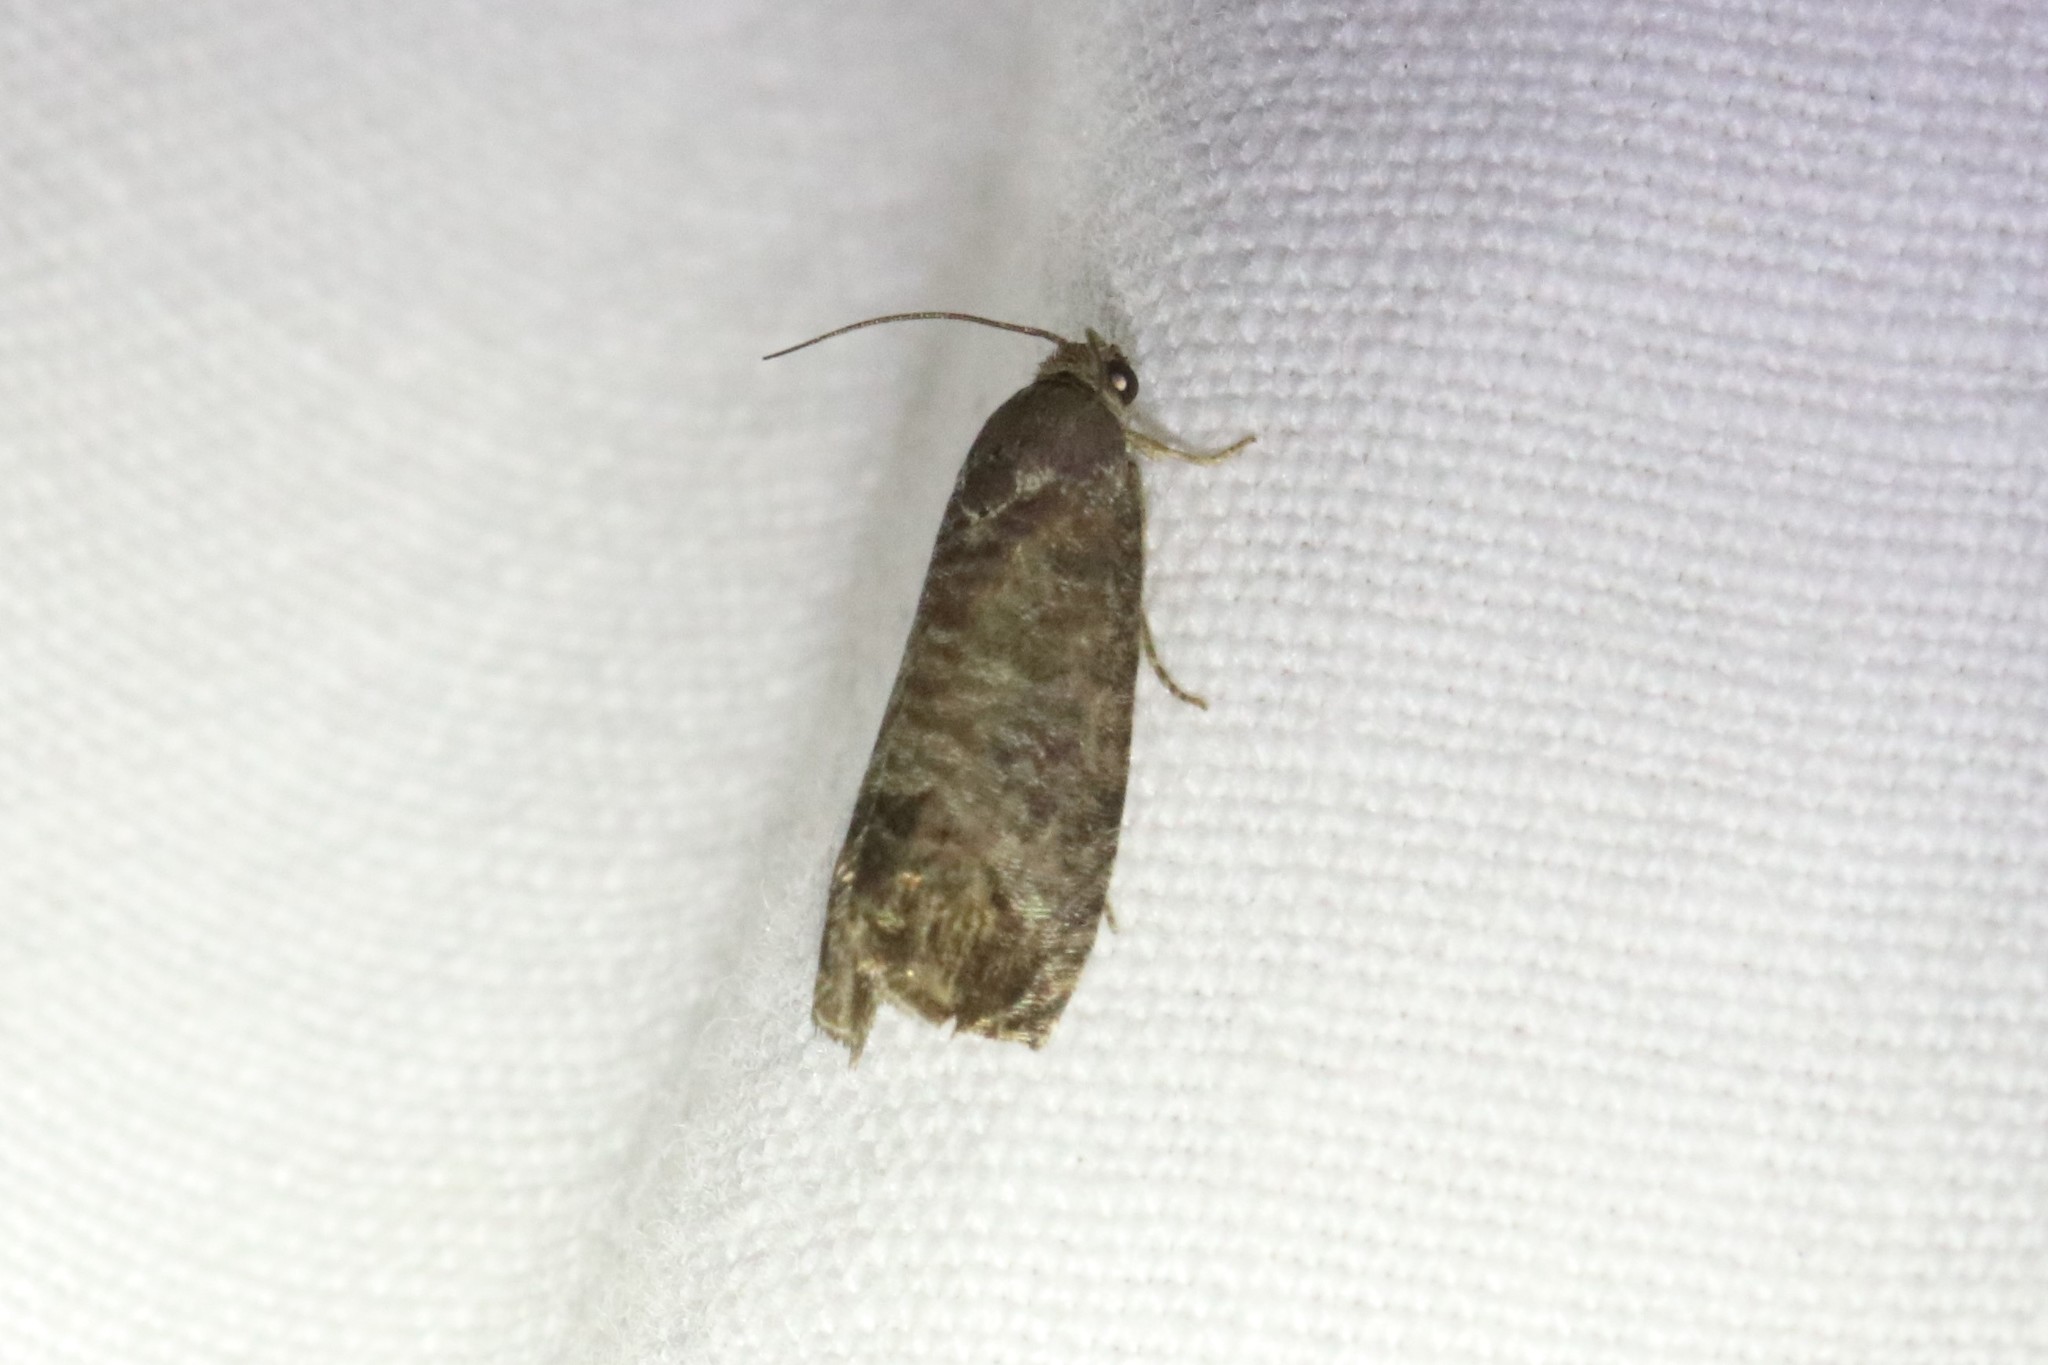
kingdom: Animalia
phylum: Arthropoda
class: Insecta
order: Lepidoptera
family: Tortricidae
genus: Cydia
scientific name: Cydia pomonella
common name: Codling moth
